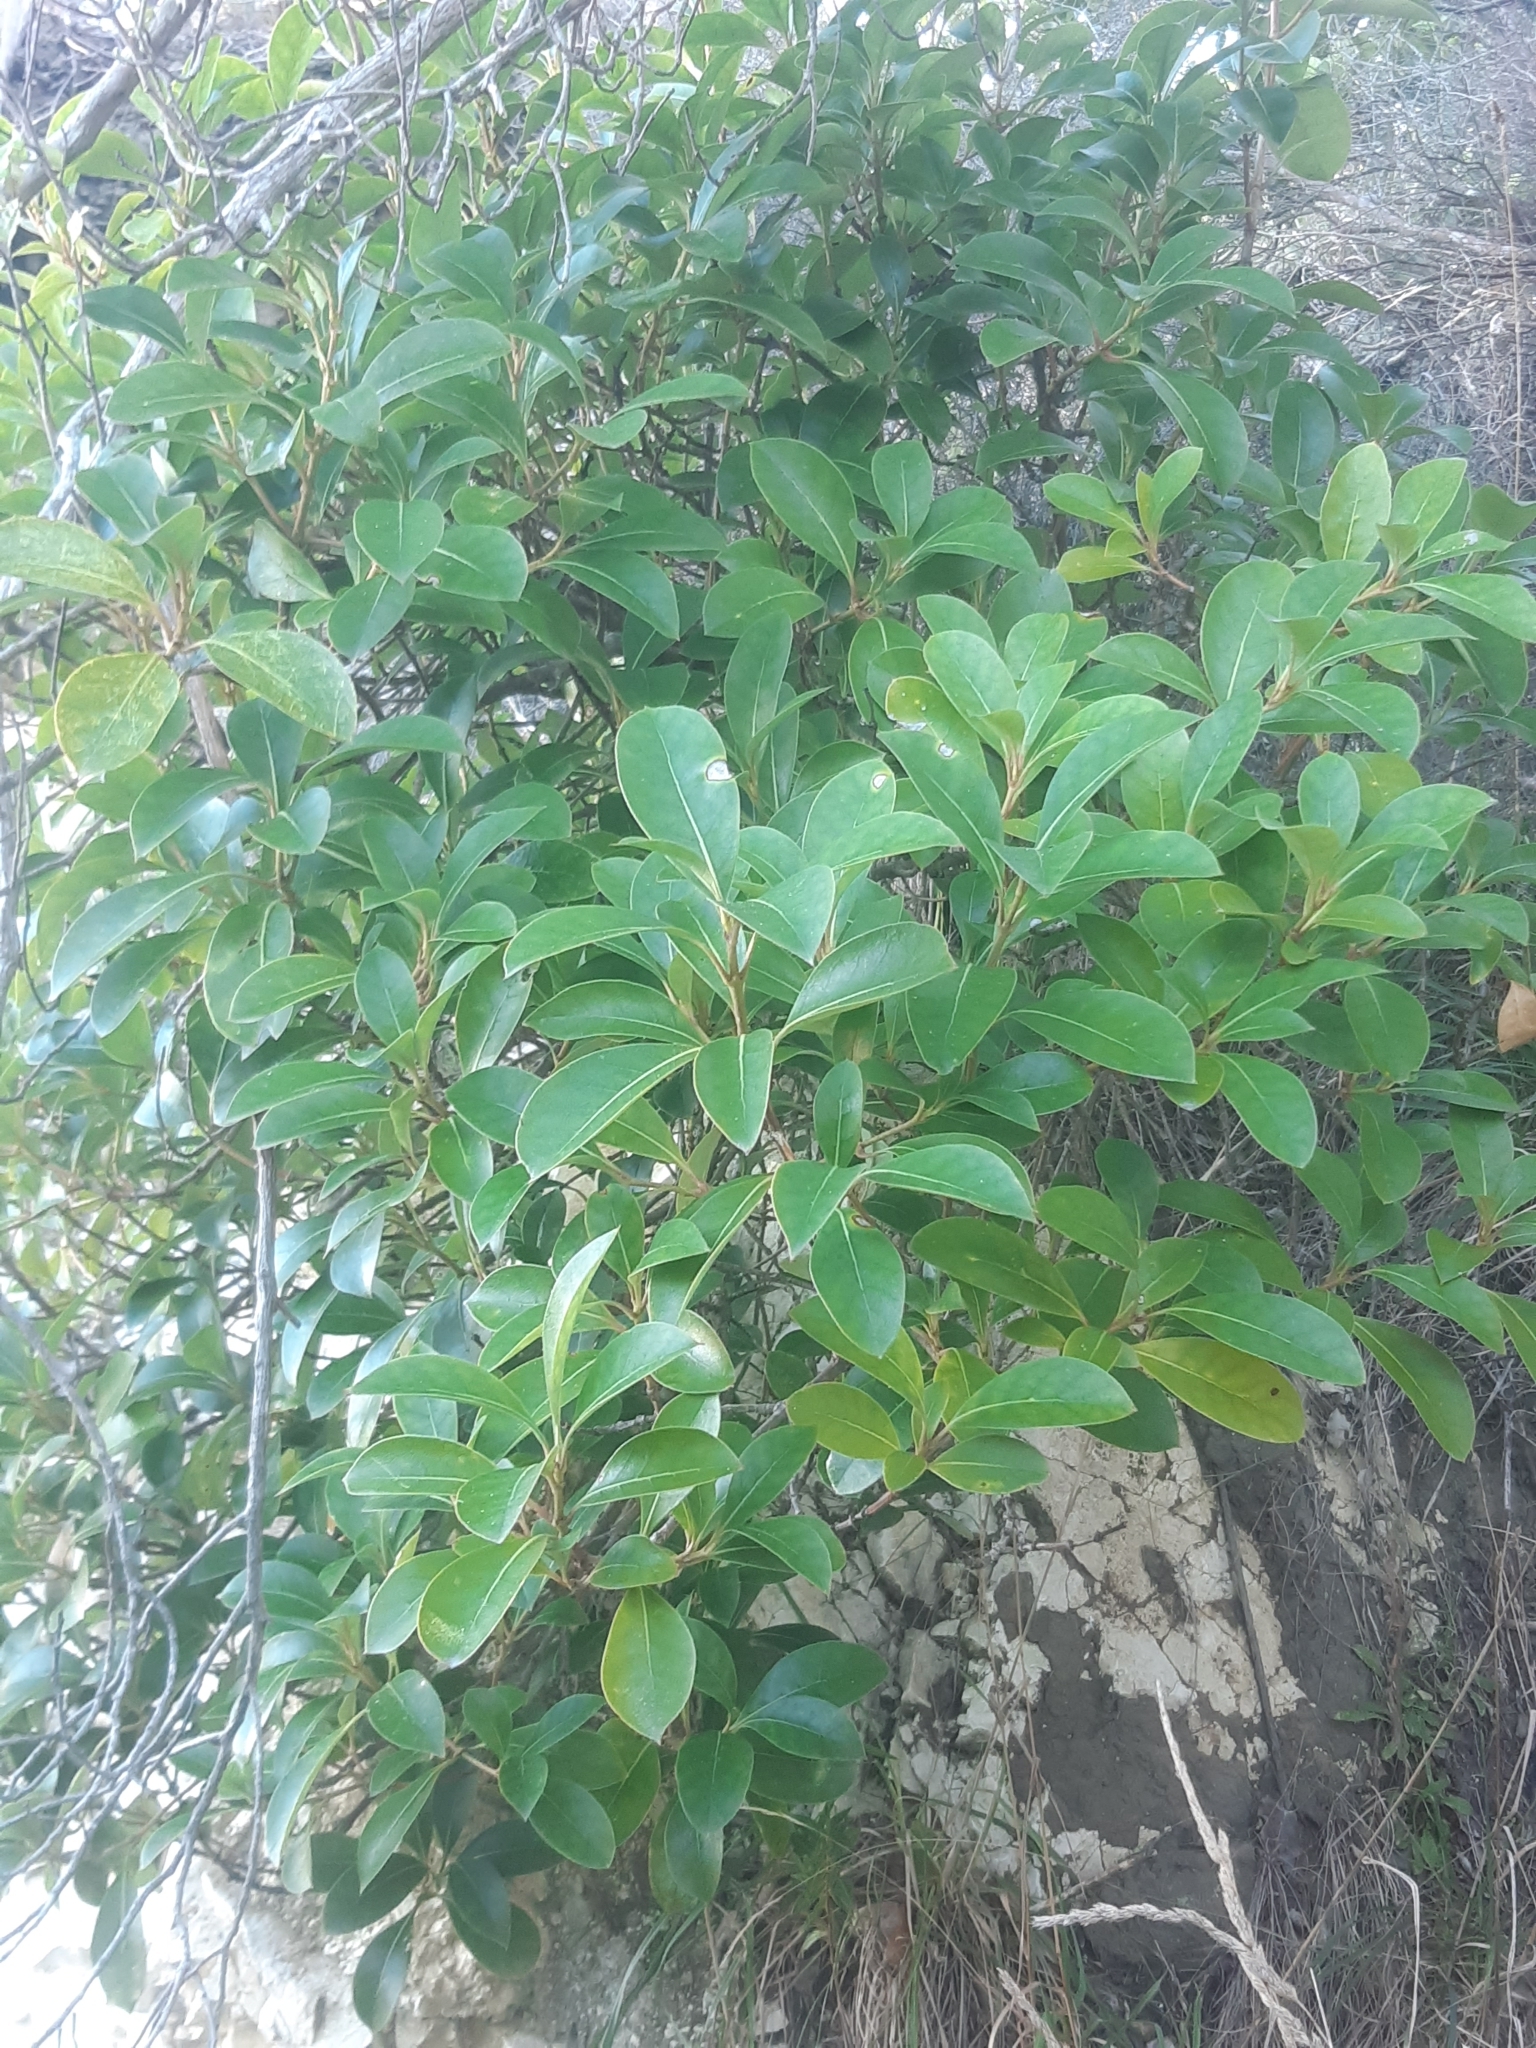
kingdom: Plantae
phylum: Tracheophyta
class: Magnoliopsida
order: Gentianales
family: Rubiaceae
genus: Coprosma
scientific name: Coprosma lucida
